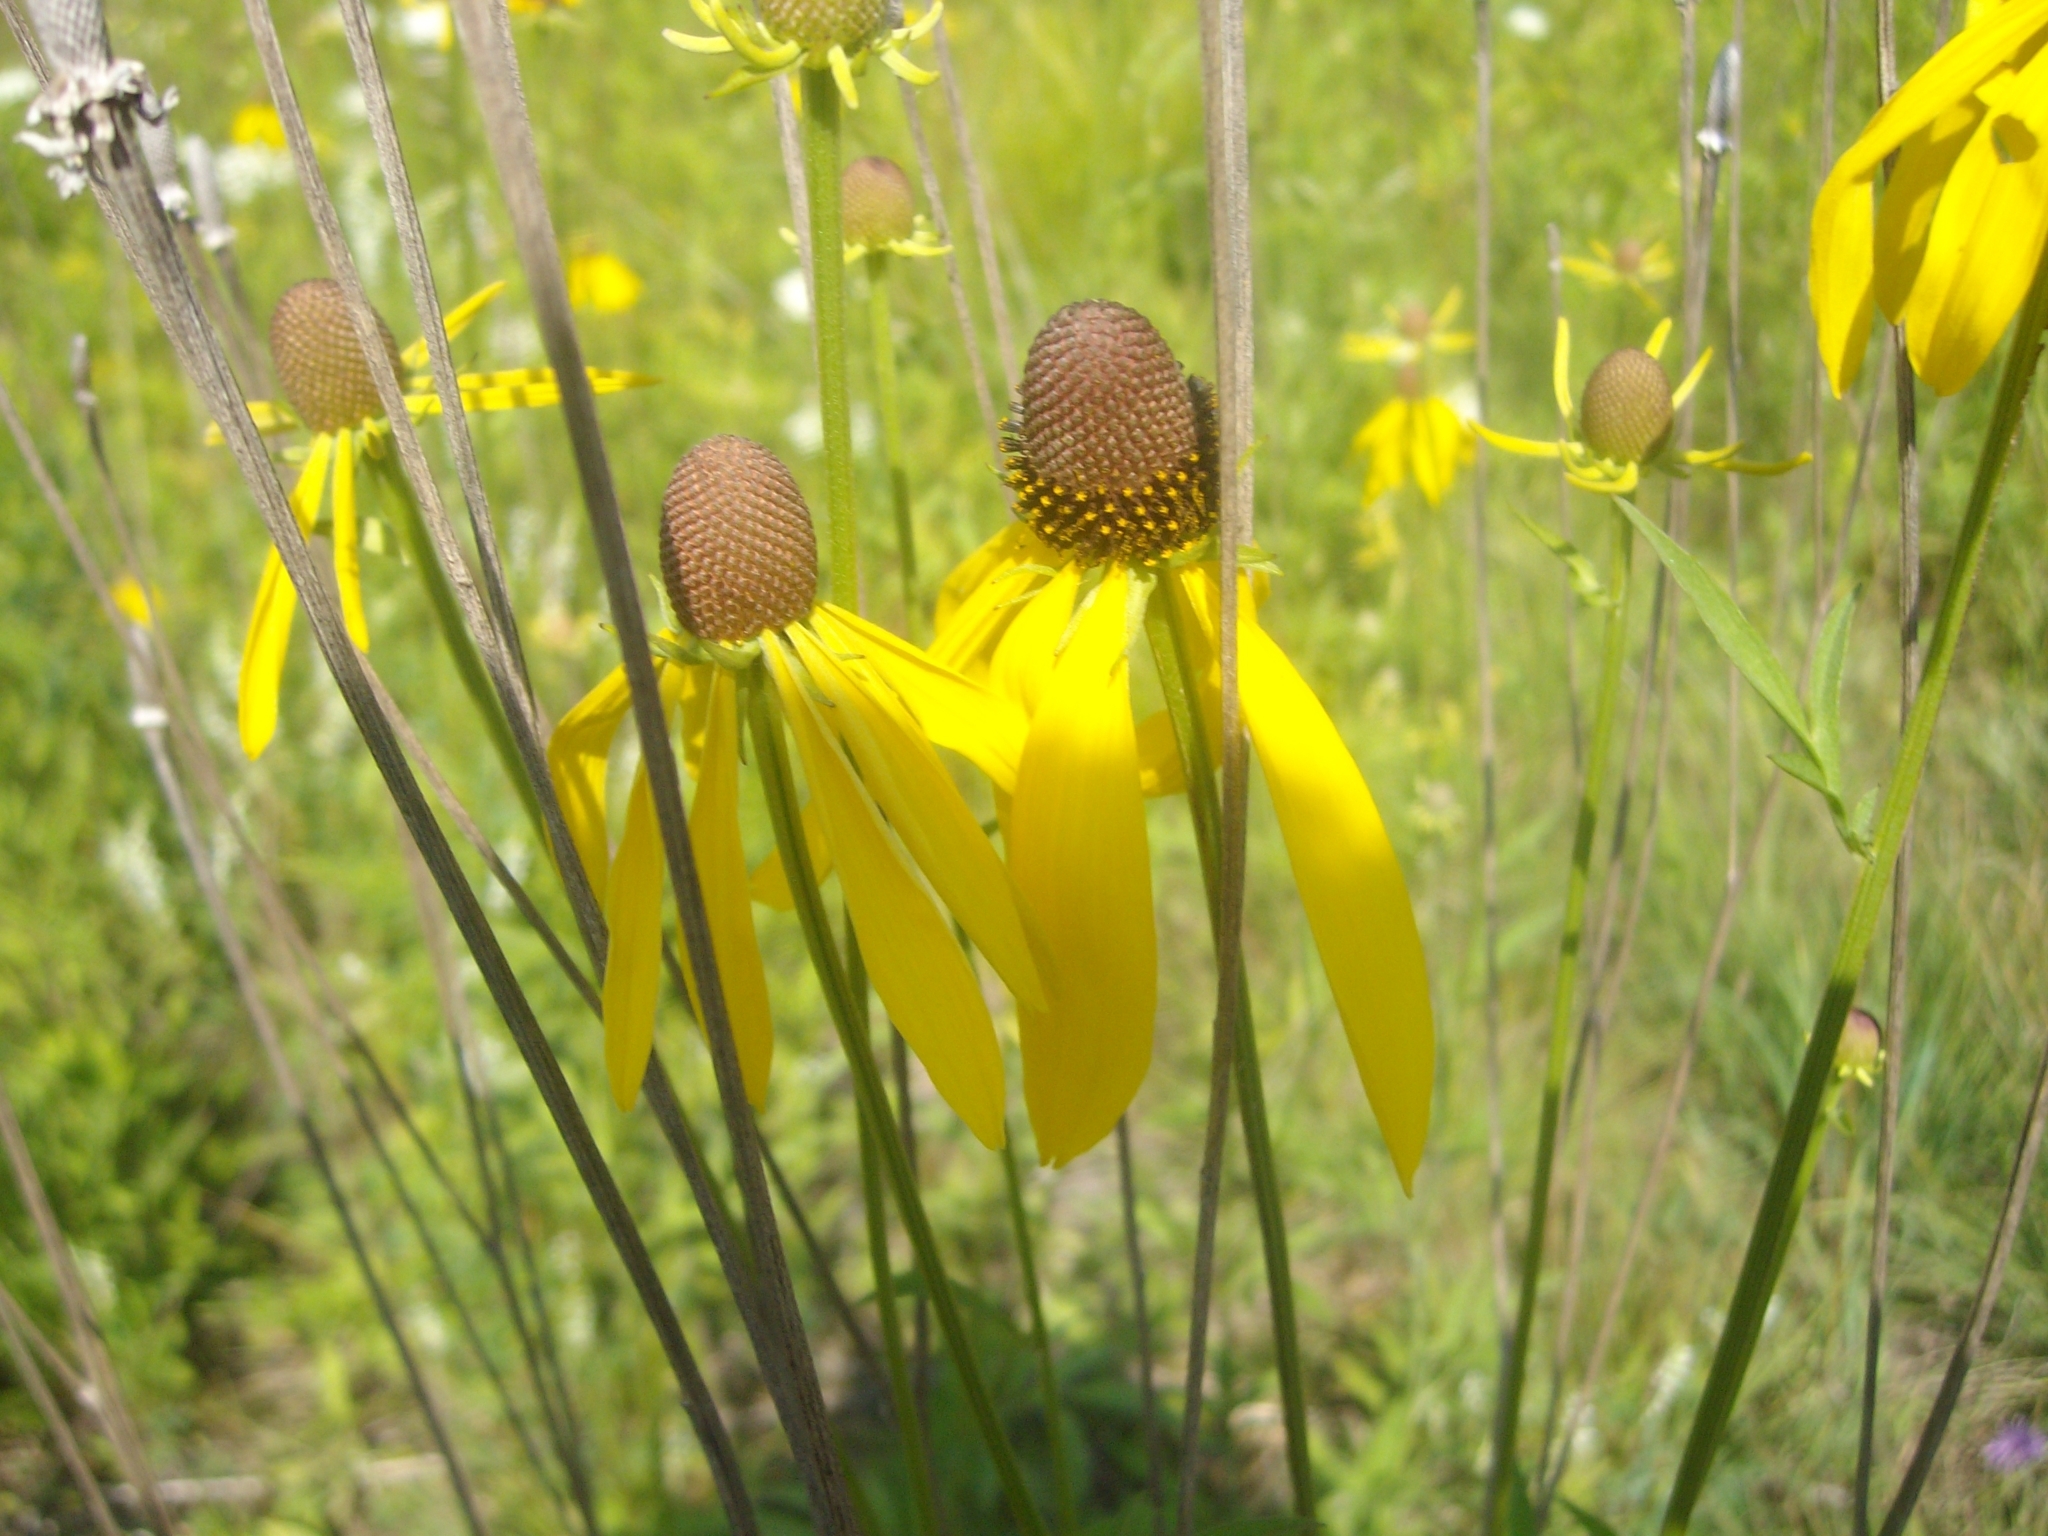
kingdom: Plantae
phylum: Tracheophyta
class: Magnoliopsida
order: Asterales
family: Asteraceae
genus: Ratibida
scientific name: Ratibida pinnata
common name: Drooping prairie-coneflower
